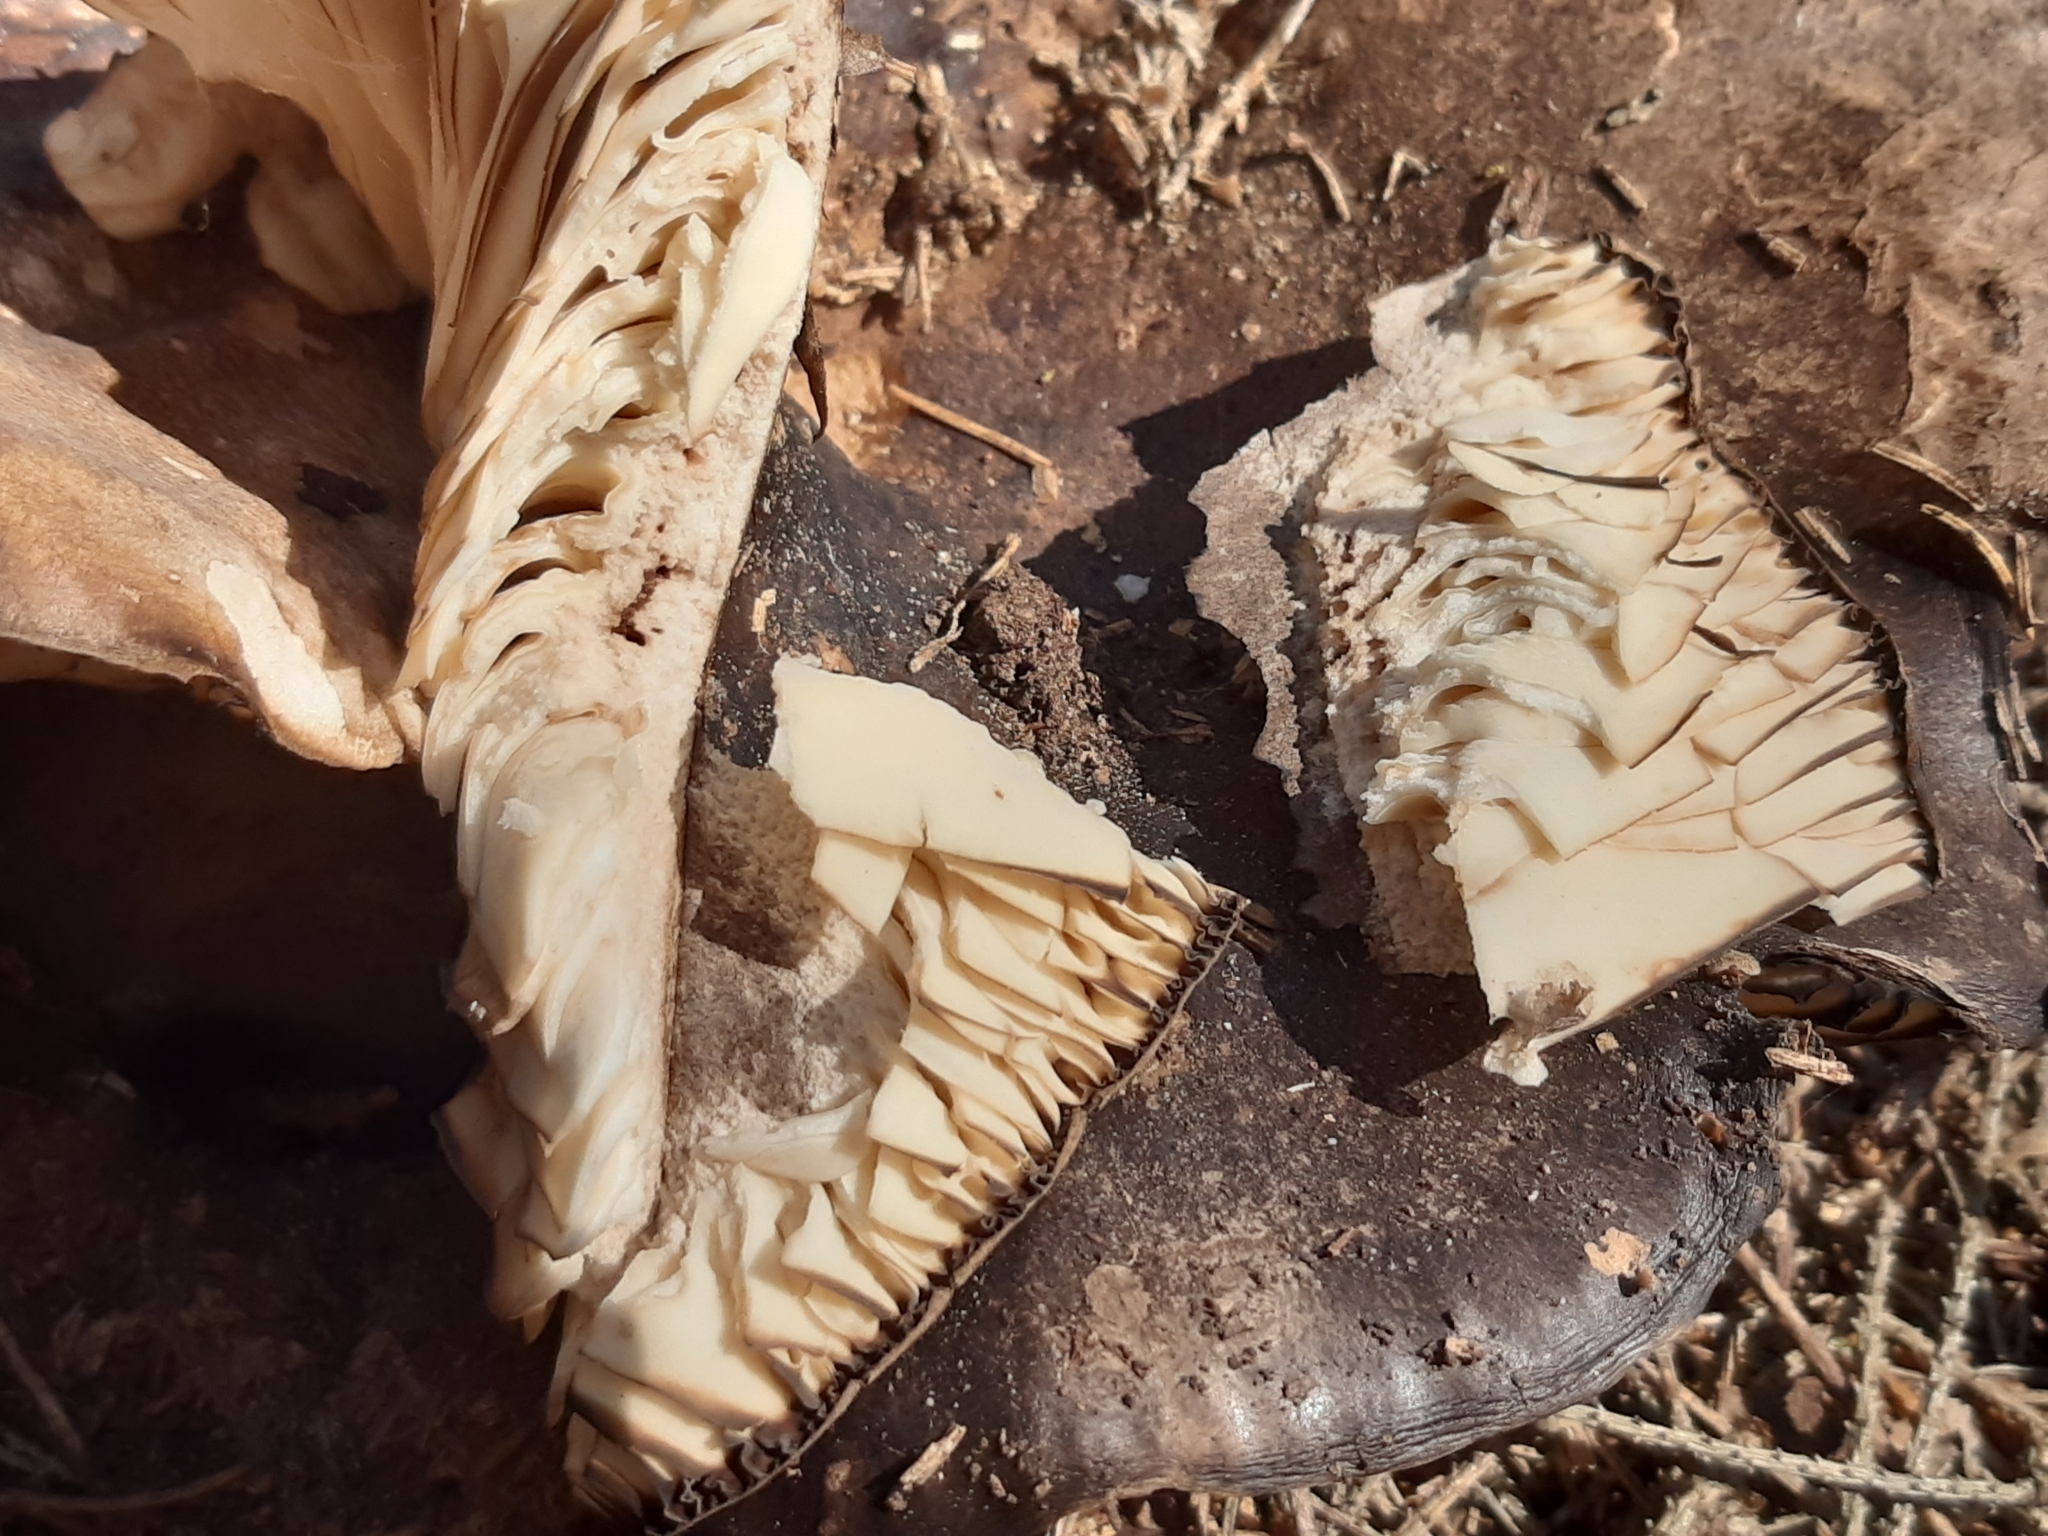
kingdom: Fungi
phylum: Basidiomycota
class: Agaricomycetes
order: Russulales
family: Russulaceae
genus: Russula
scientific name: Russula adusta
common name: Winecork brittlegill
